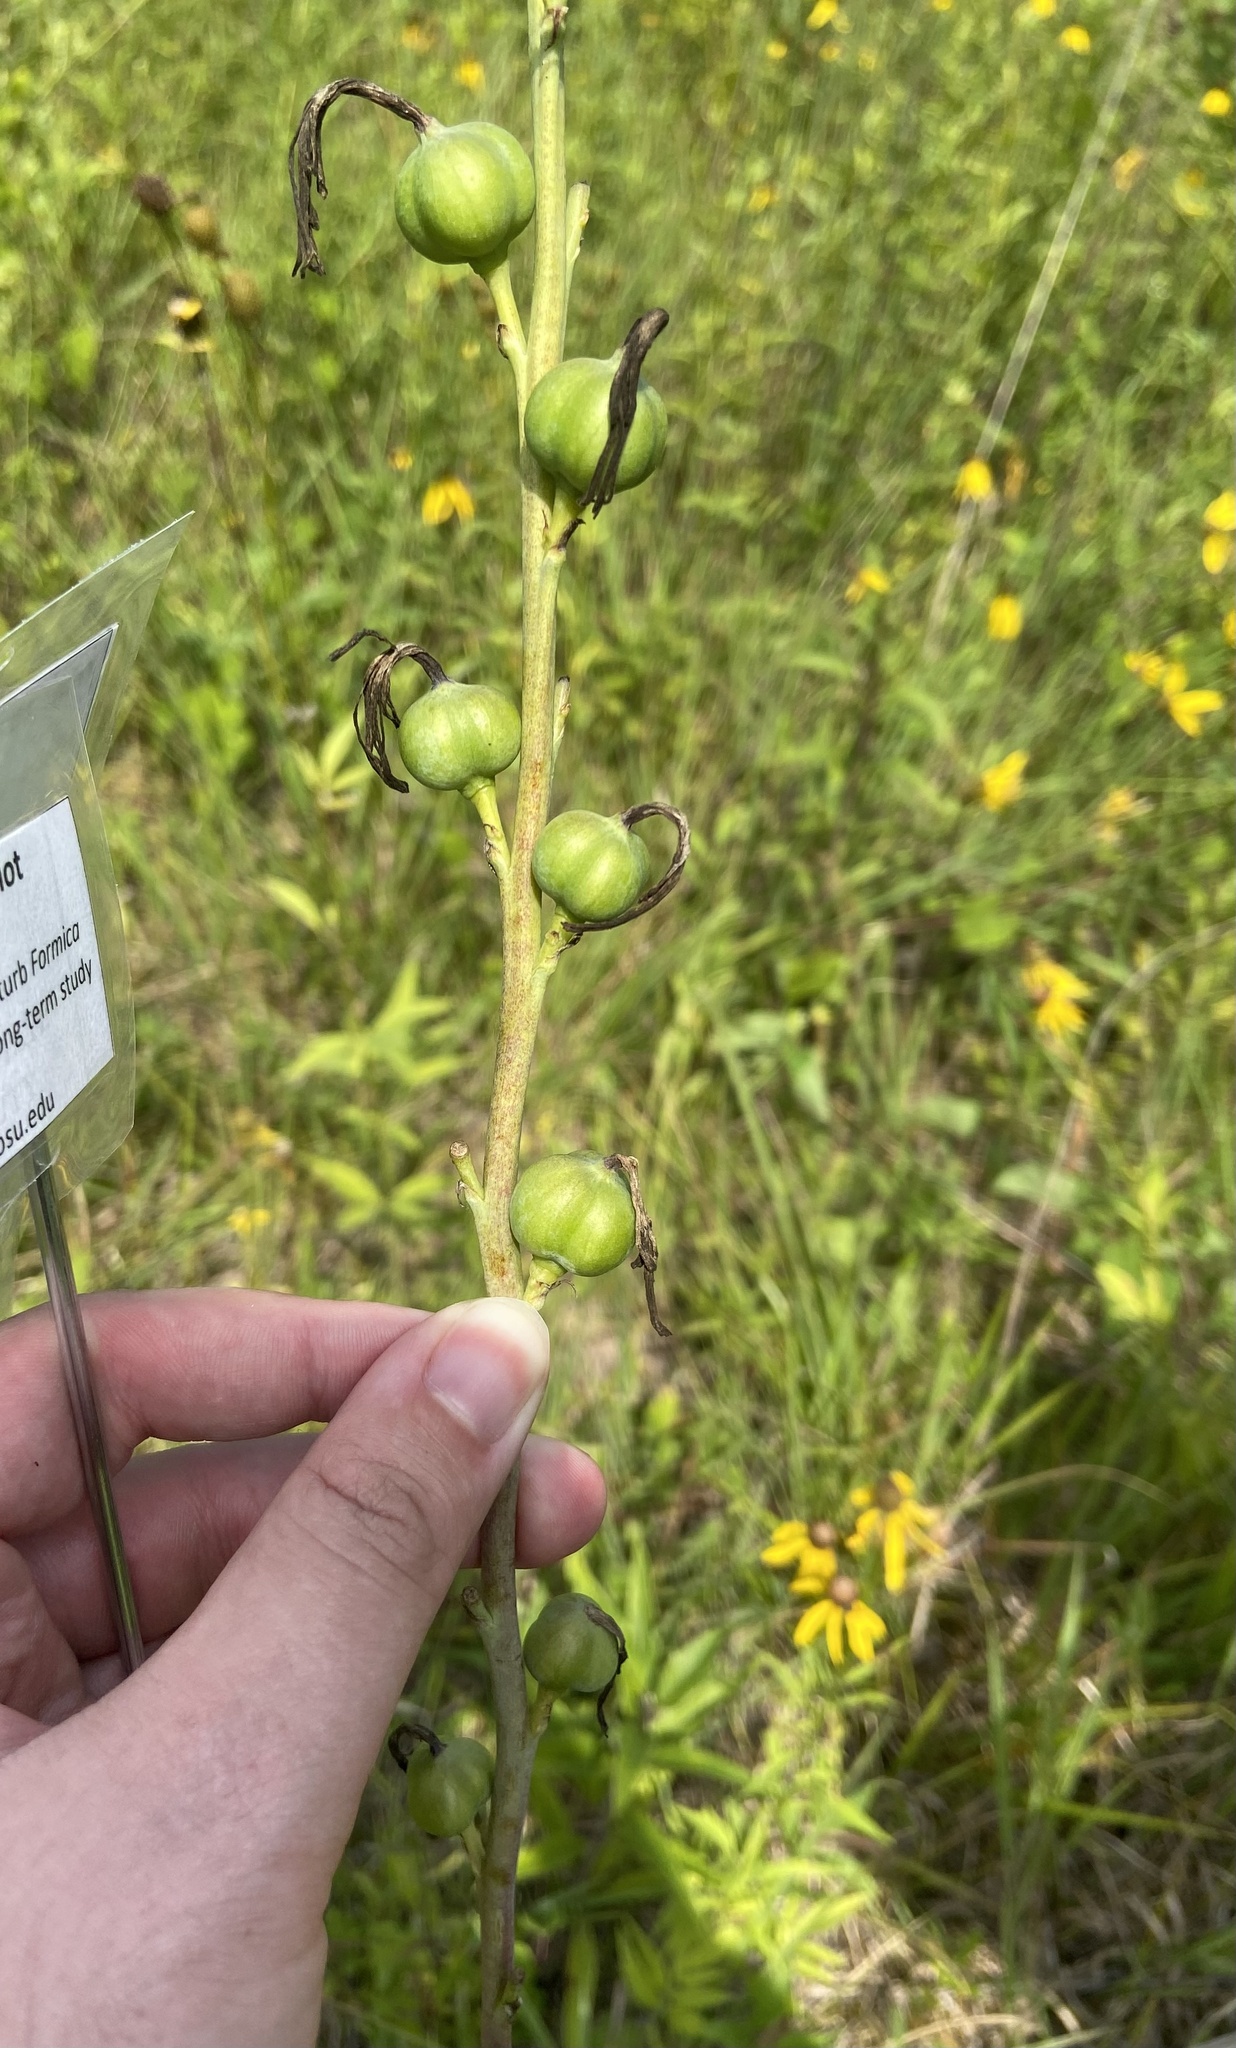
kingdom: Plantae
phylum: Tracheophyta
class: Liliopsida
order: Asparagales
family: Asparagaceae
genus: Agave
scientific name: Agave virginica
